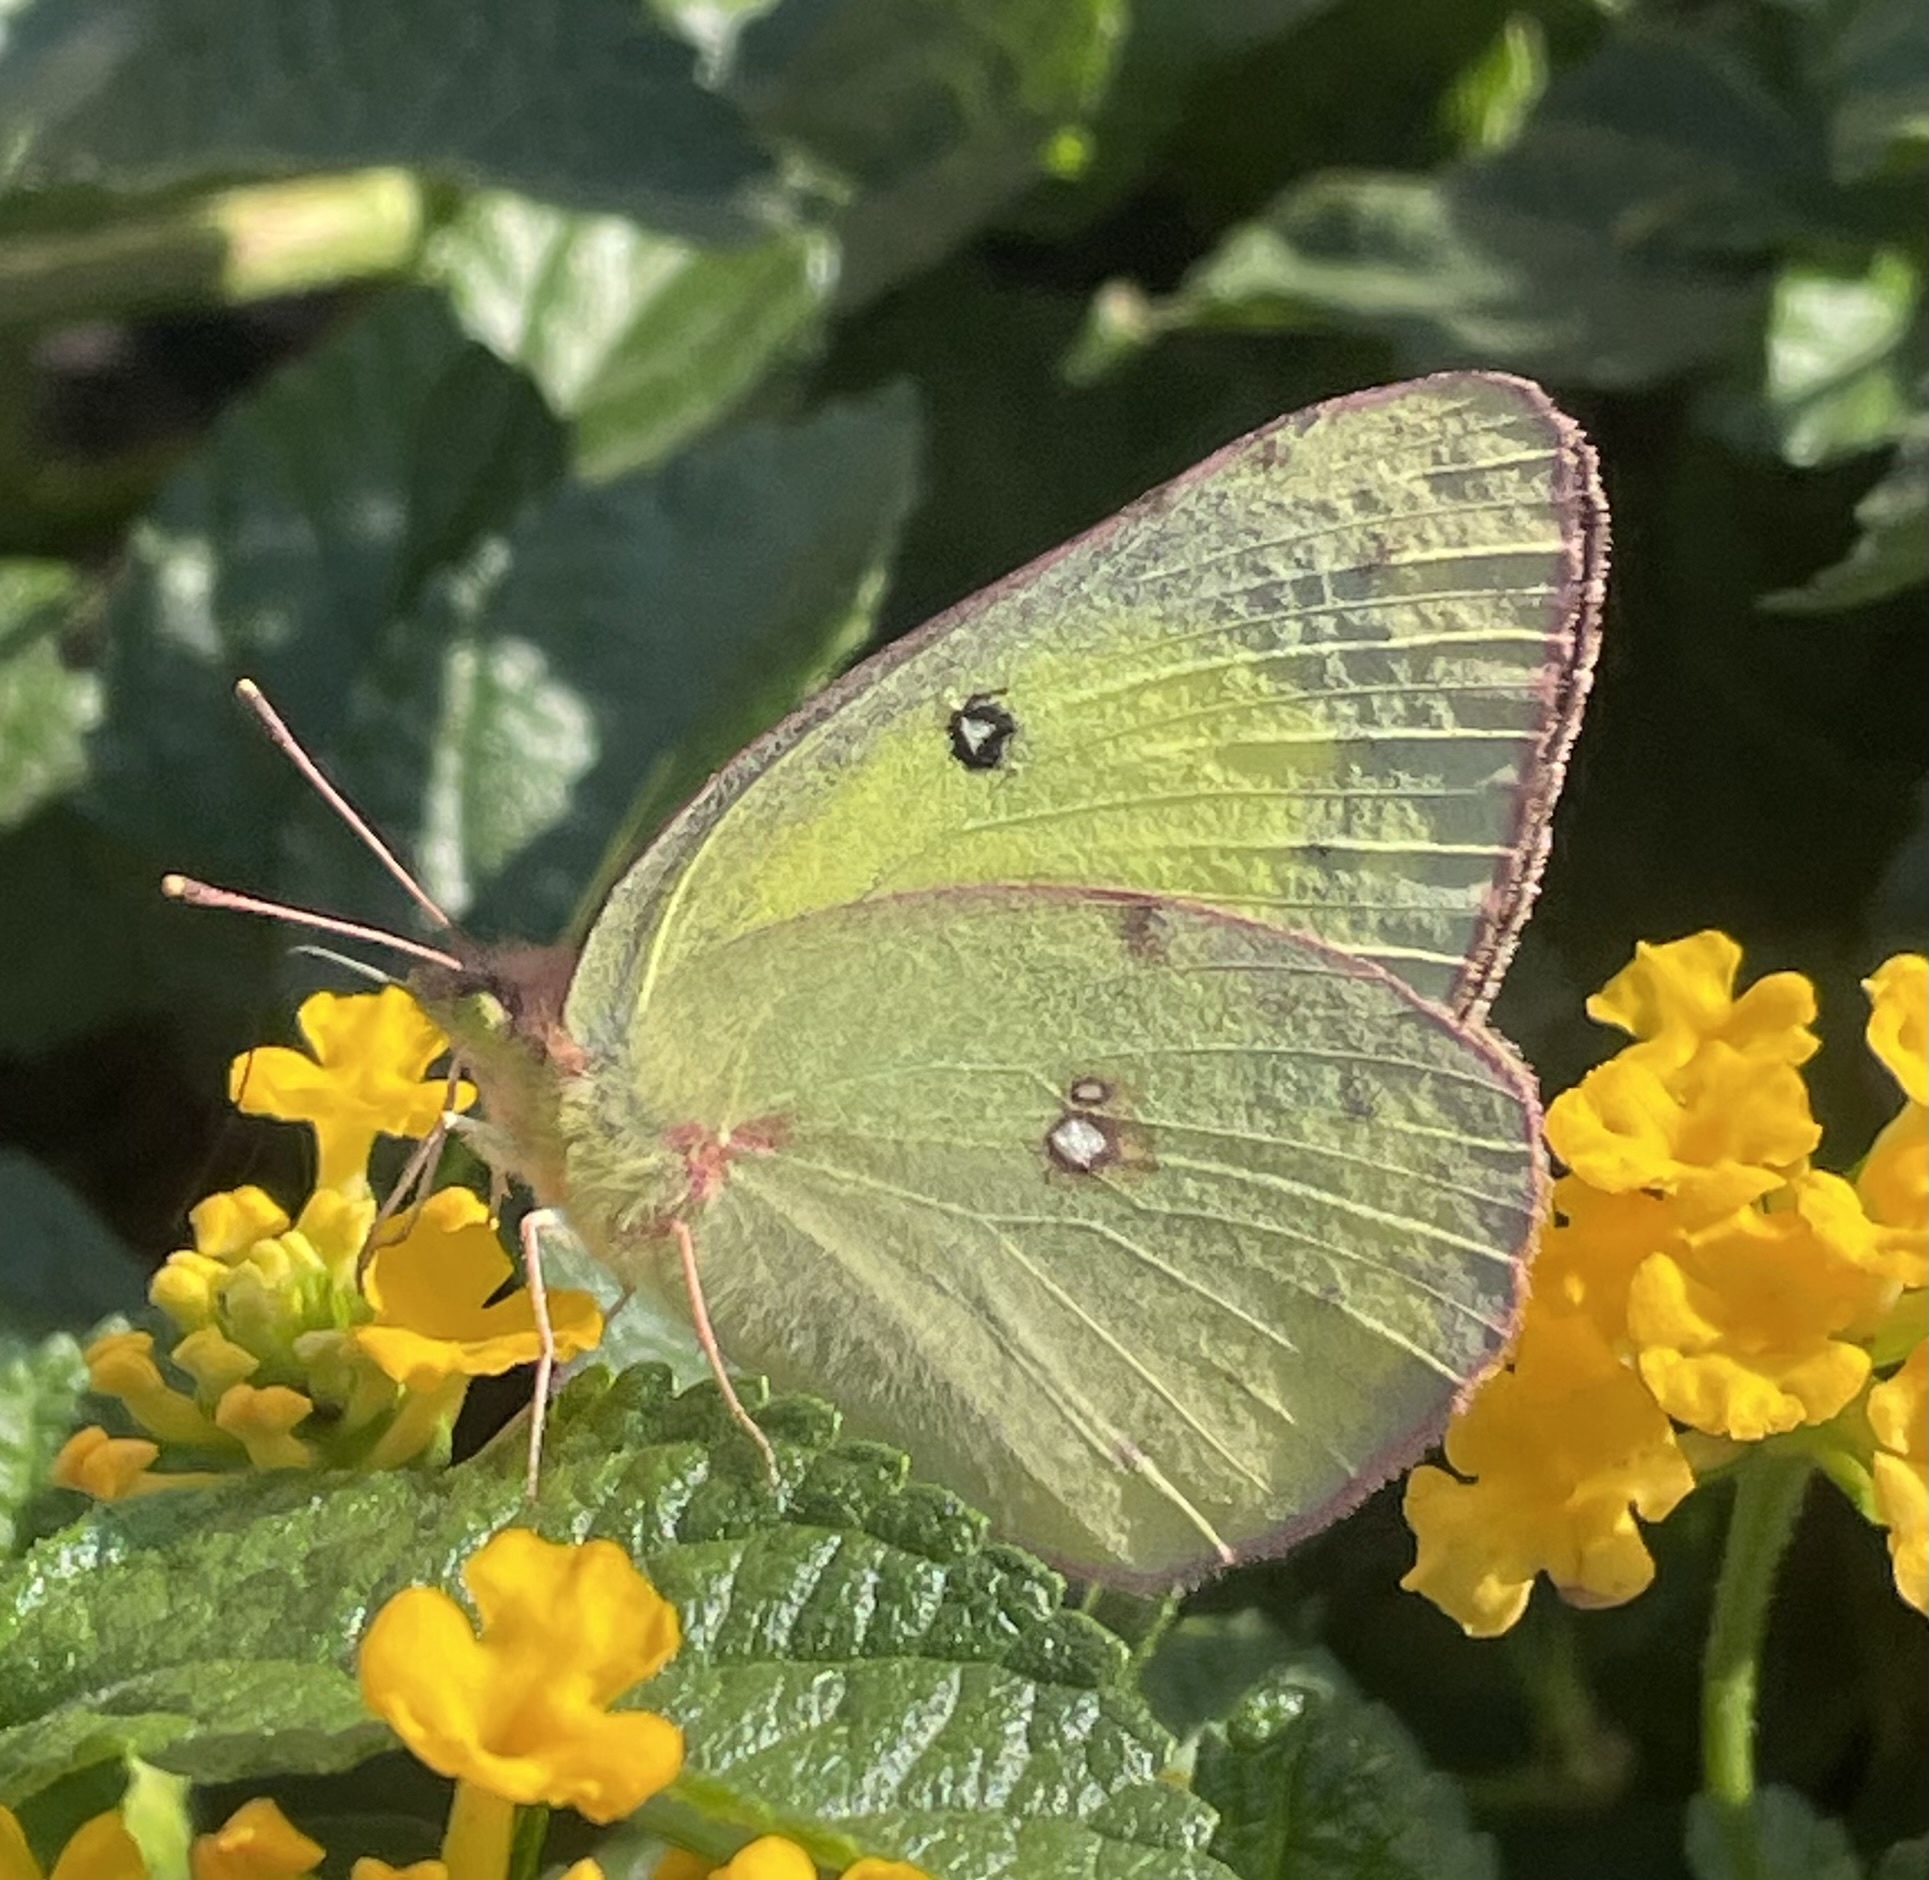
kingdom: Animalia
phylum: Arthropoda
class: Insecta
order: Lepidoptera
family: Pieridae
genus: Colias
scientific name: Colias philodice
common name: Clouded sulphur
